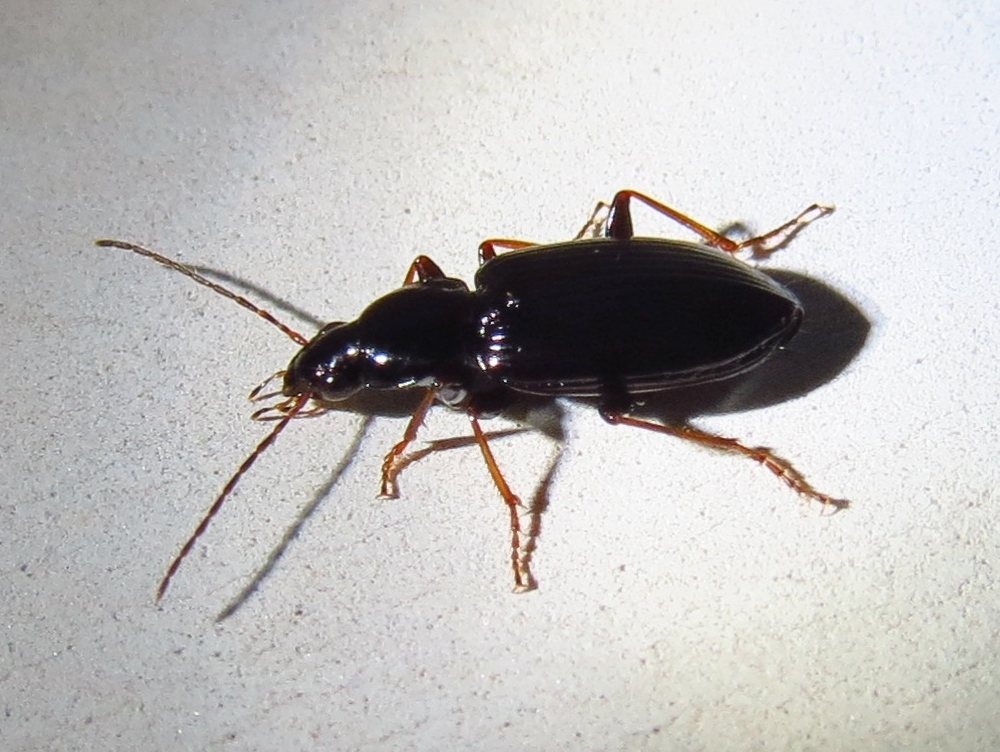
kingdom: Animalia
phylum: Arthropoda
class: Insecta
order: Coleoptera
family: Carabidae
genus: Agonum
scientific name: Agonum punctiforme
